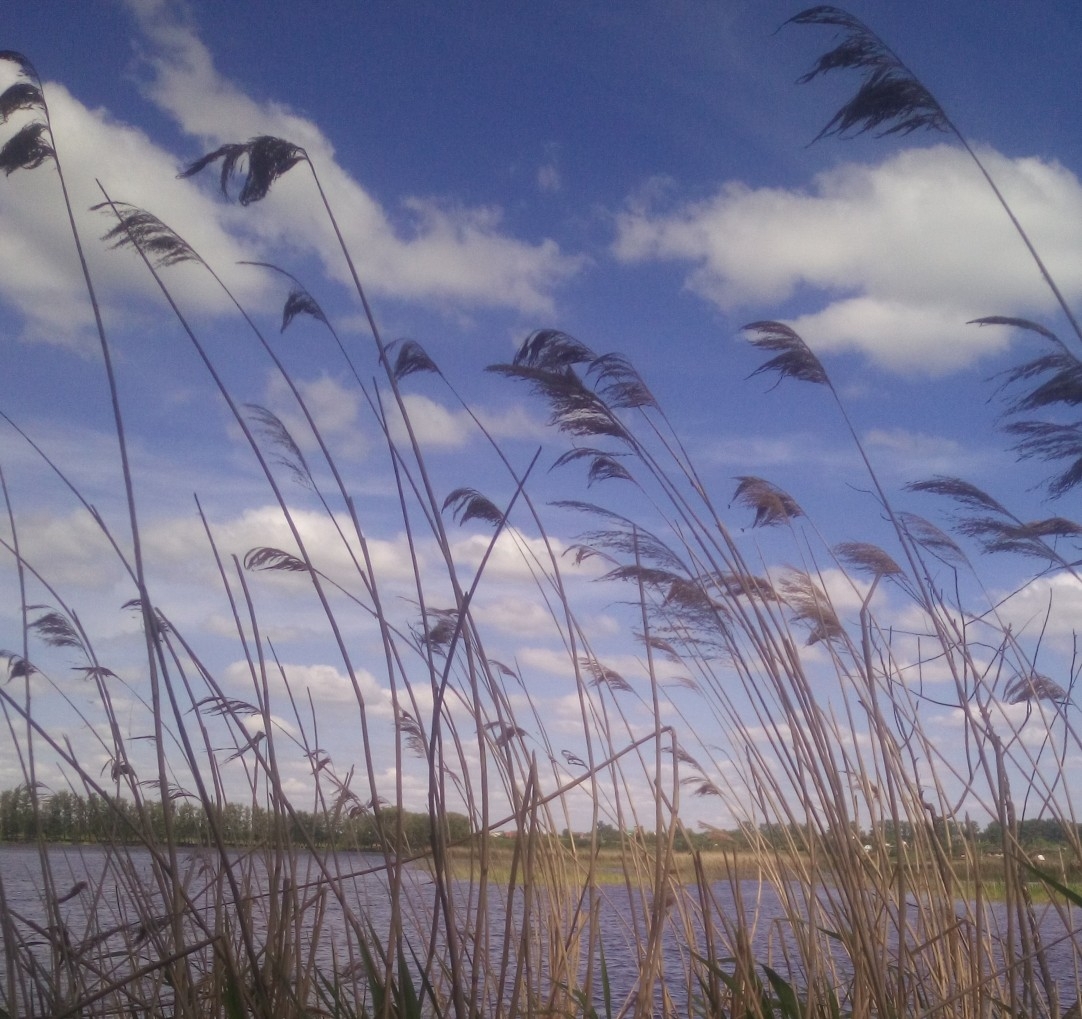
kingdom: Plantae
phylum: Tracheophyta
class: Liliopsida
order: Poales
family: Poaceae
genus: Phragmites
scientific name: Phragmites australis
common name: Common reed
